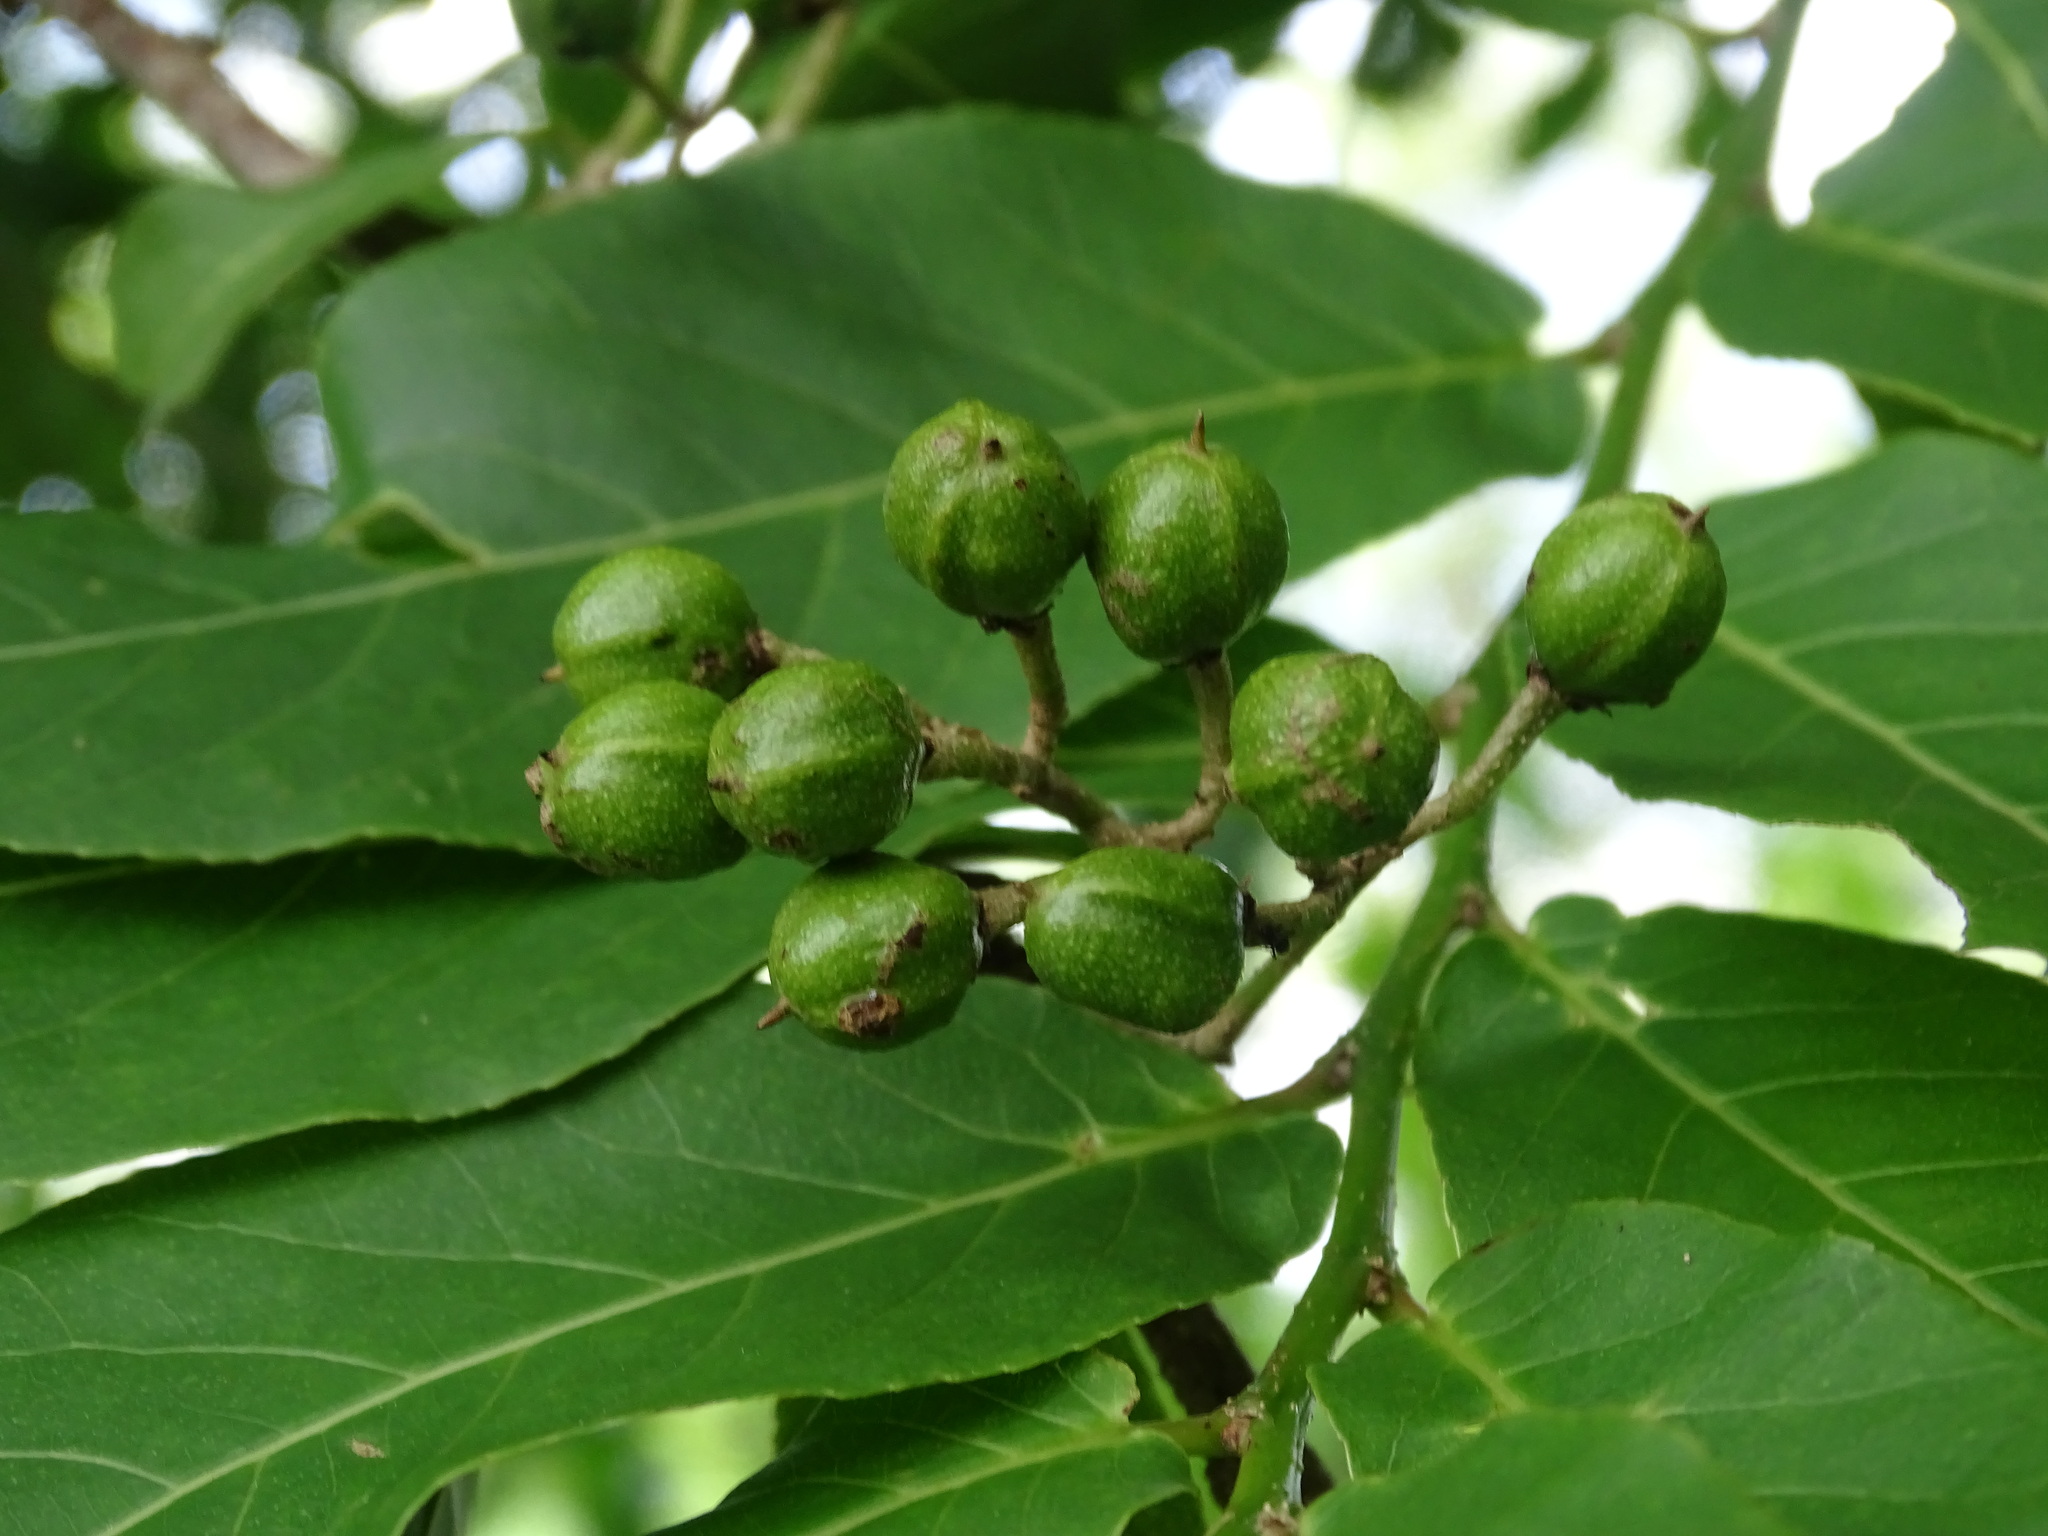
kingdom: Plantae
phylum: Tracheophyta
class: Magnoliopsida
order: Malpighiales
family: Salicaceae
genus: Casearia
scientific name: Casearia corymbosa
